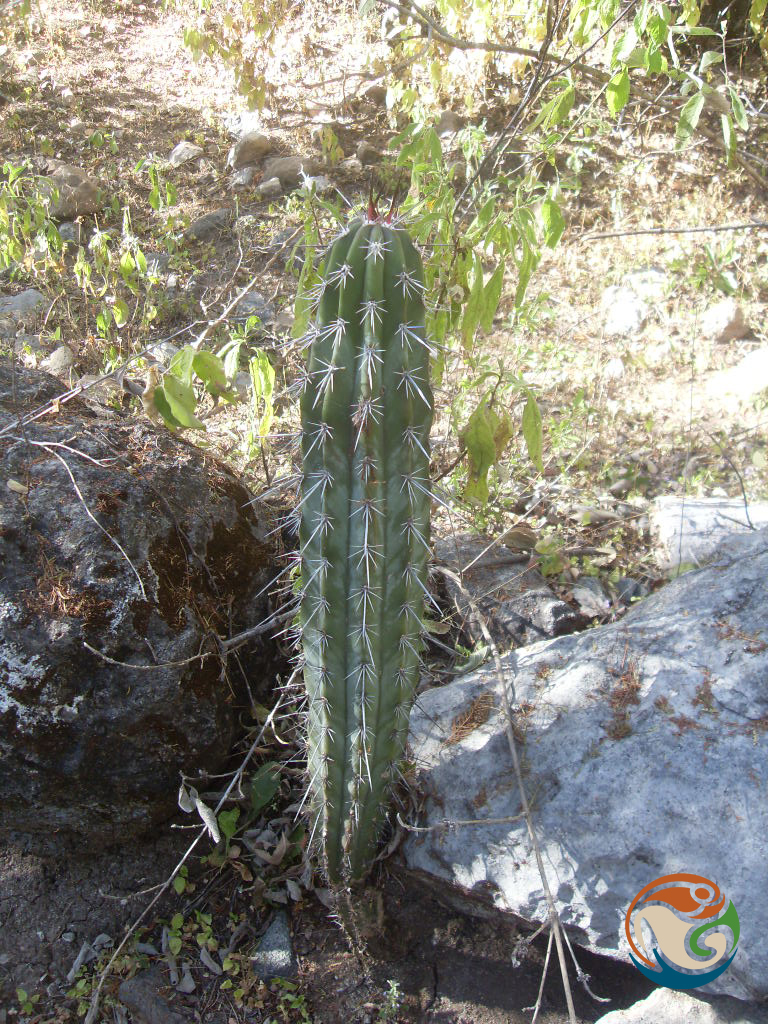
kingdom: Plantae
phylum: Tracheophyta
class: Magnoliopsida
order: Caryophyllales
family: Cactaceae
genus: Pachycereus
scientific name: Pachycereus weberi
